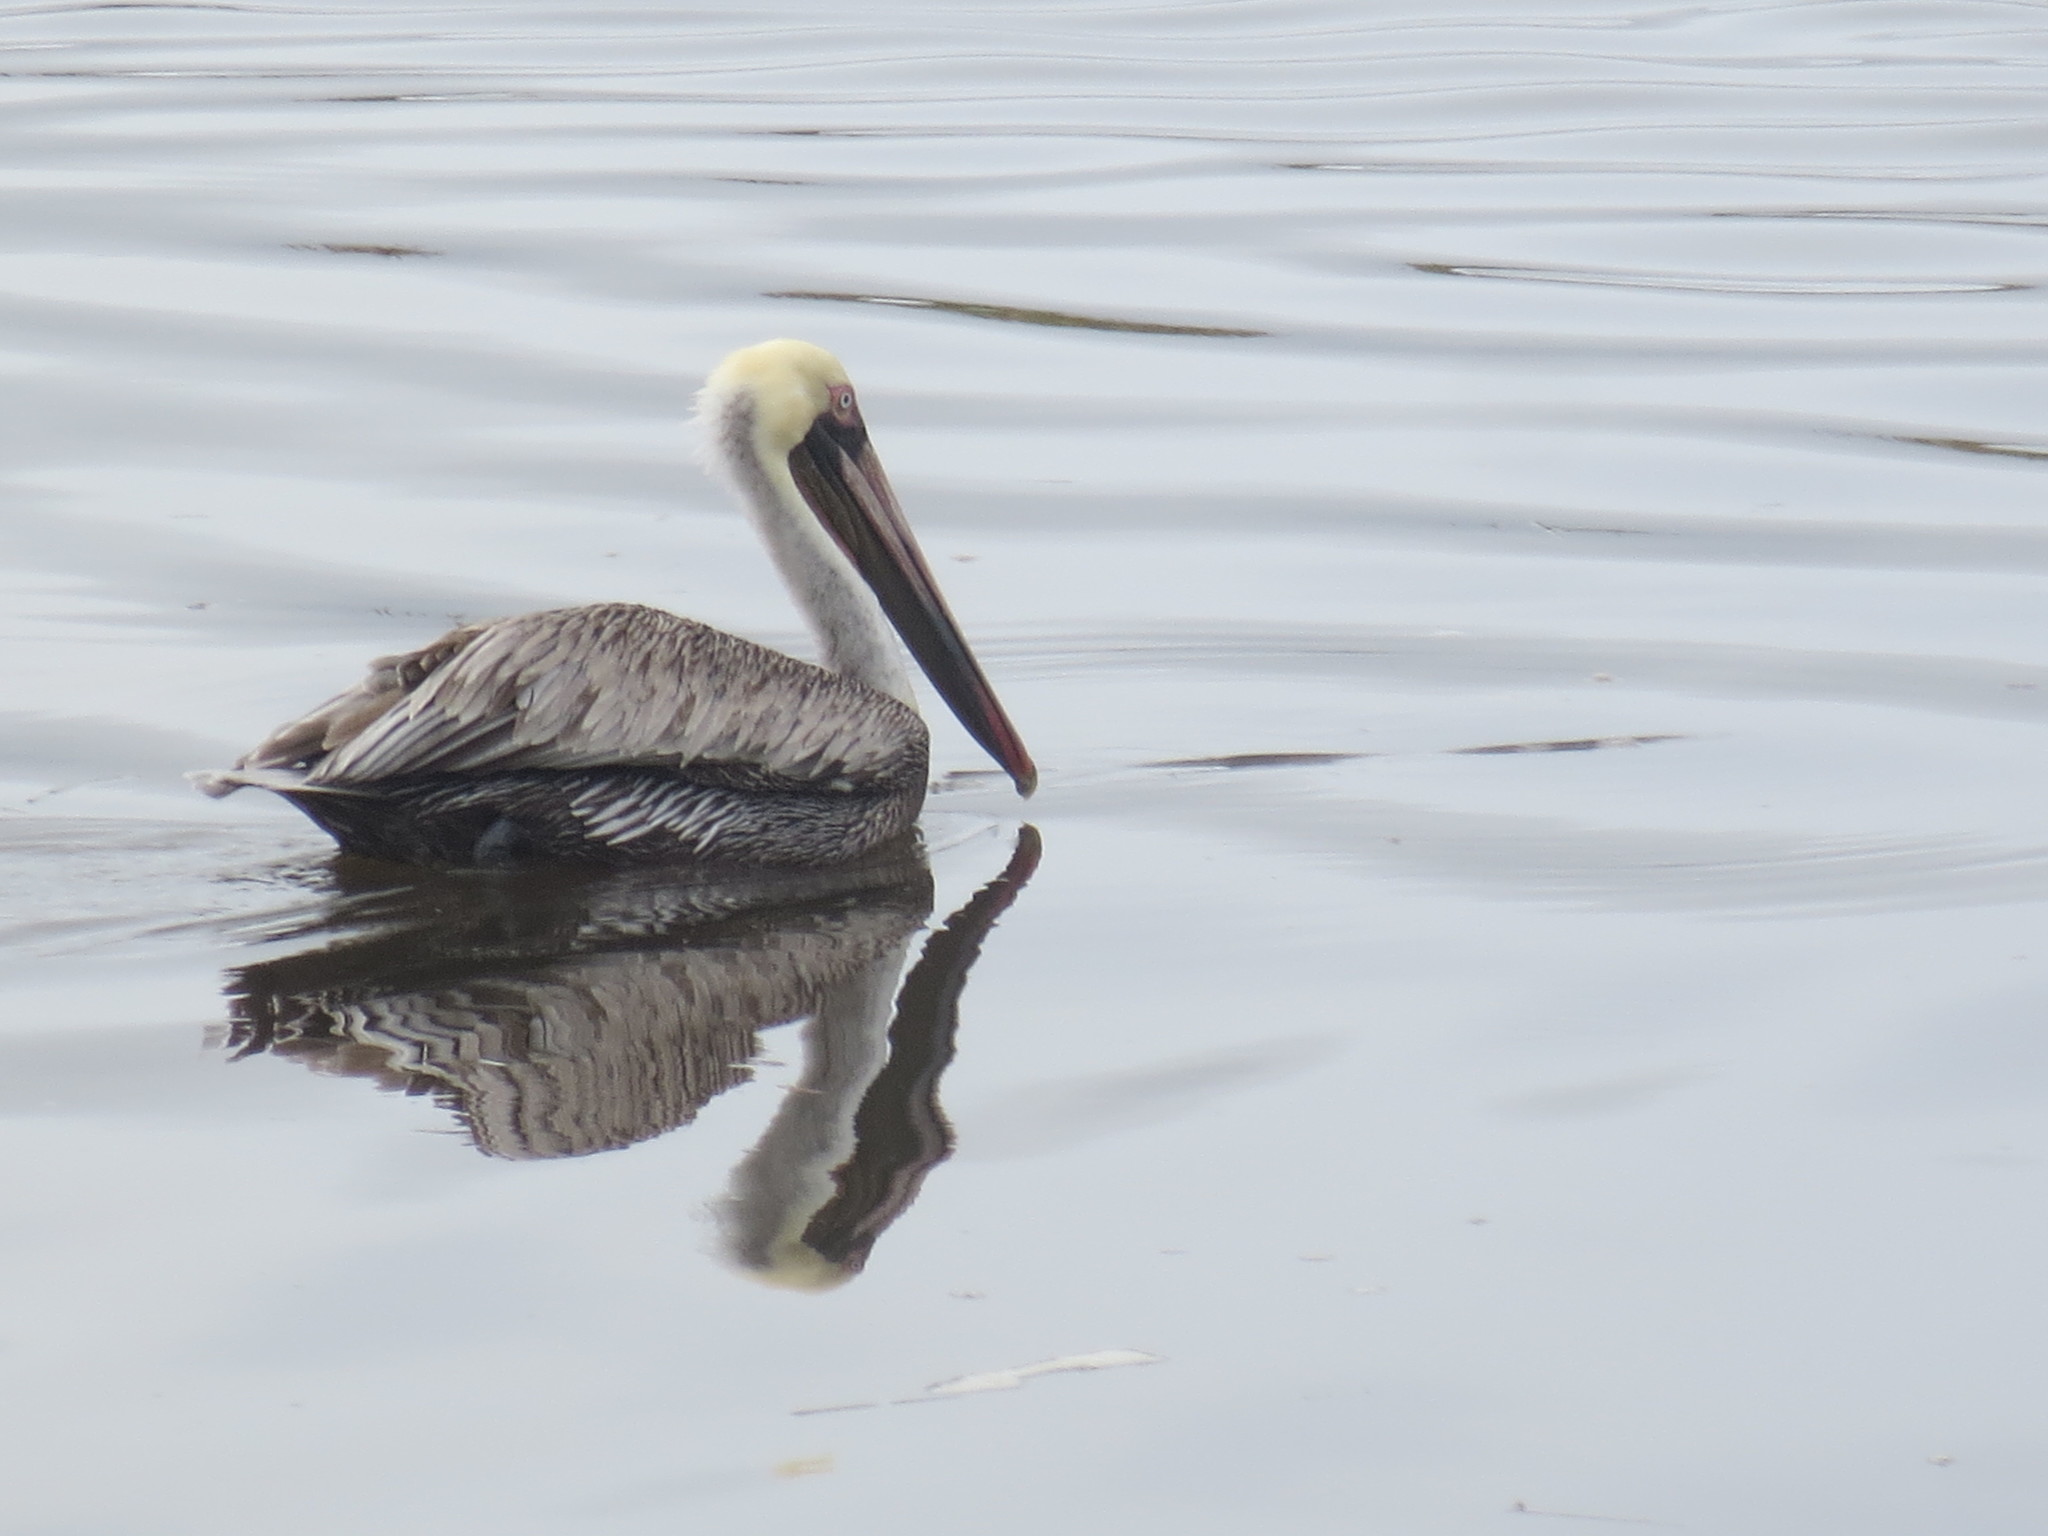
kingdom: Animalia
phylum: Chordata
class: Aves
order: Pelecaniformes
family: Pelecanidae
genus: Pelecanus
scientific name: Pelecanus occidentalis
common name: Brown pelican
